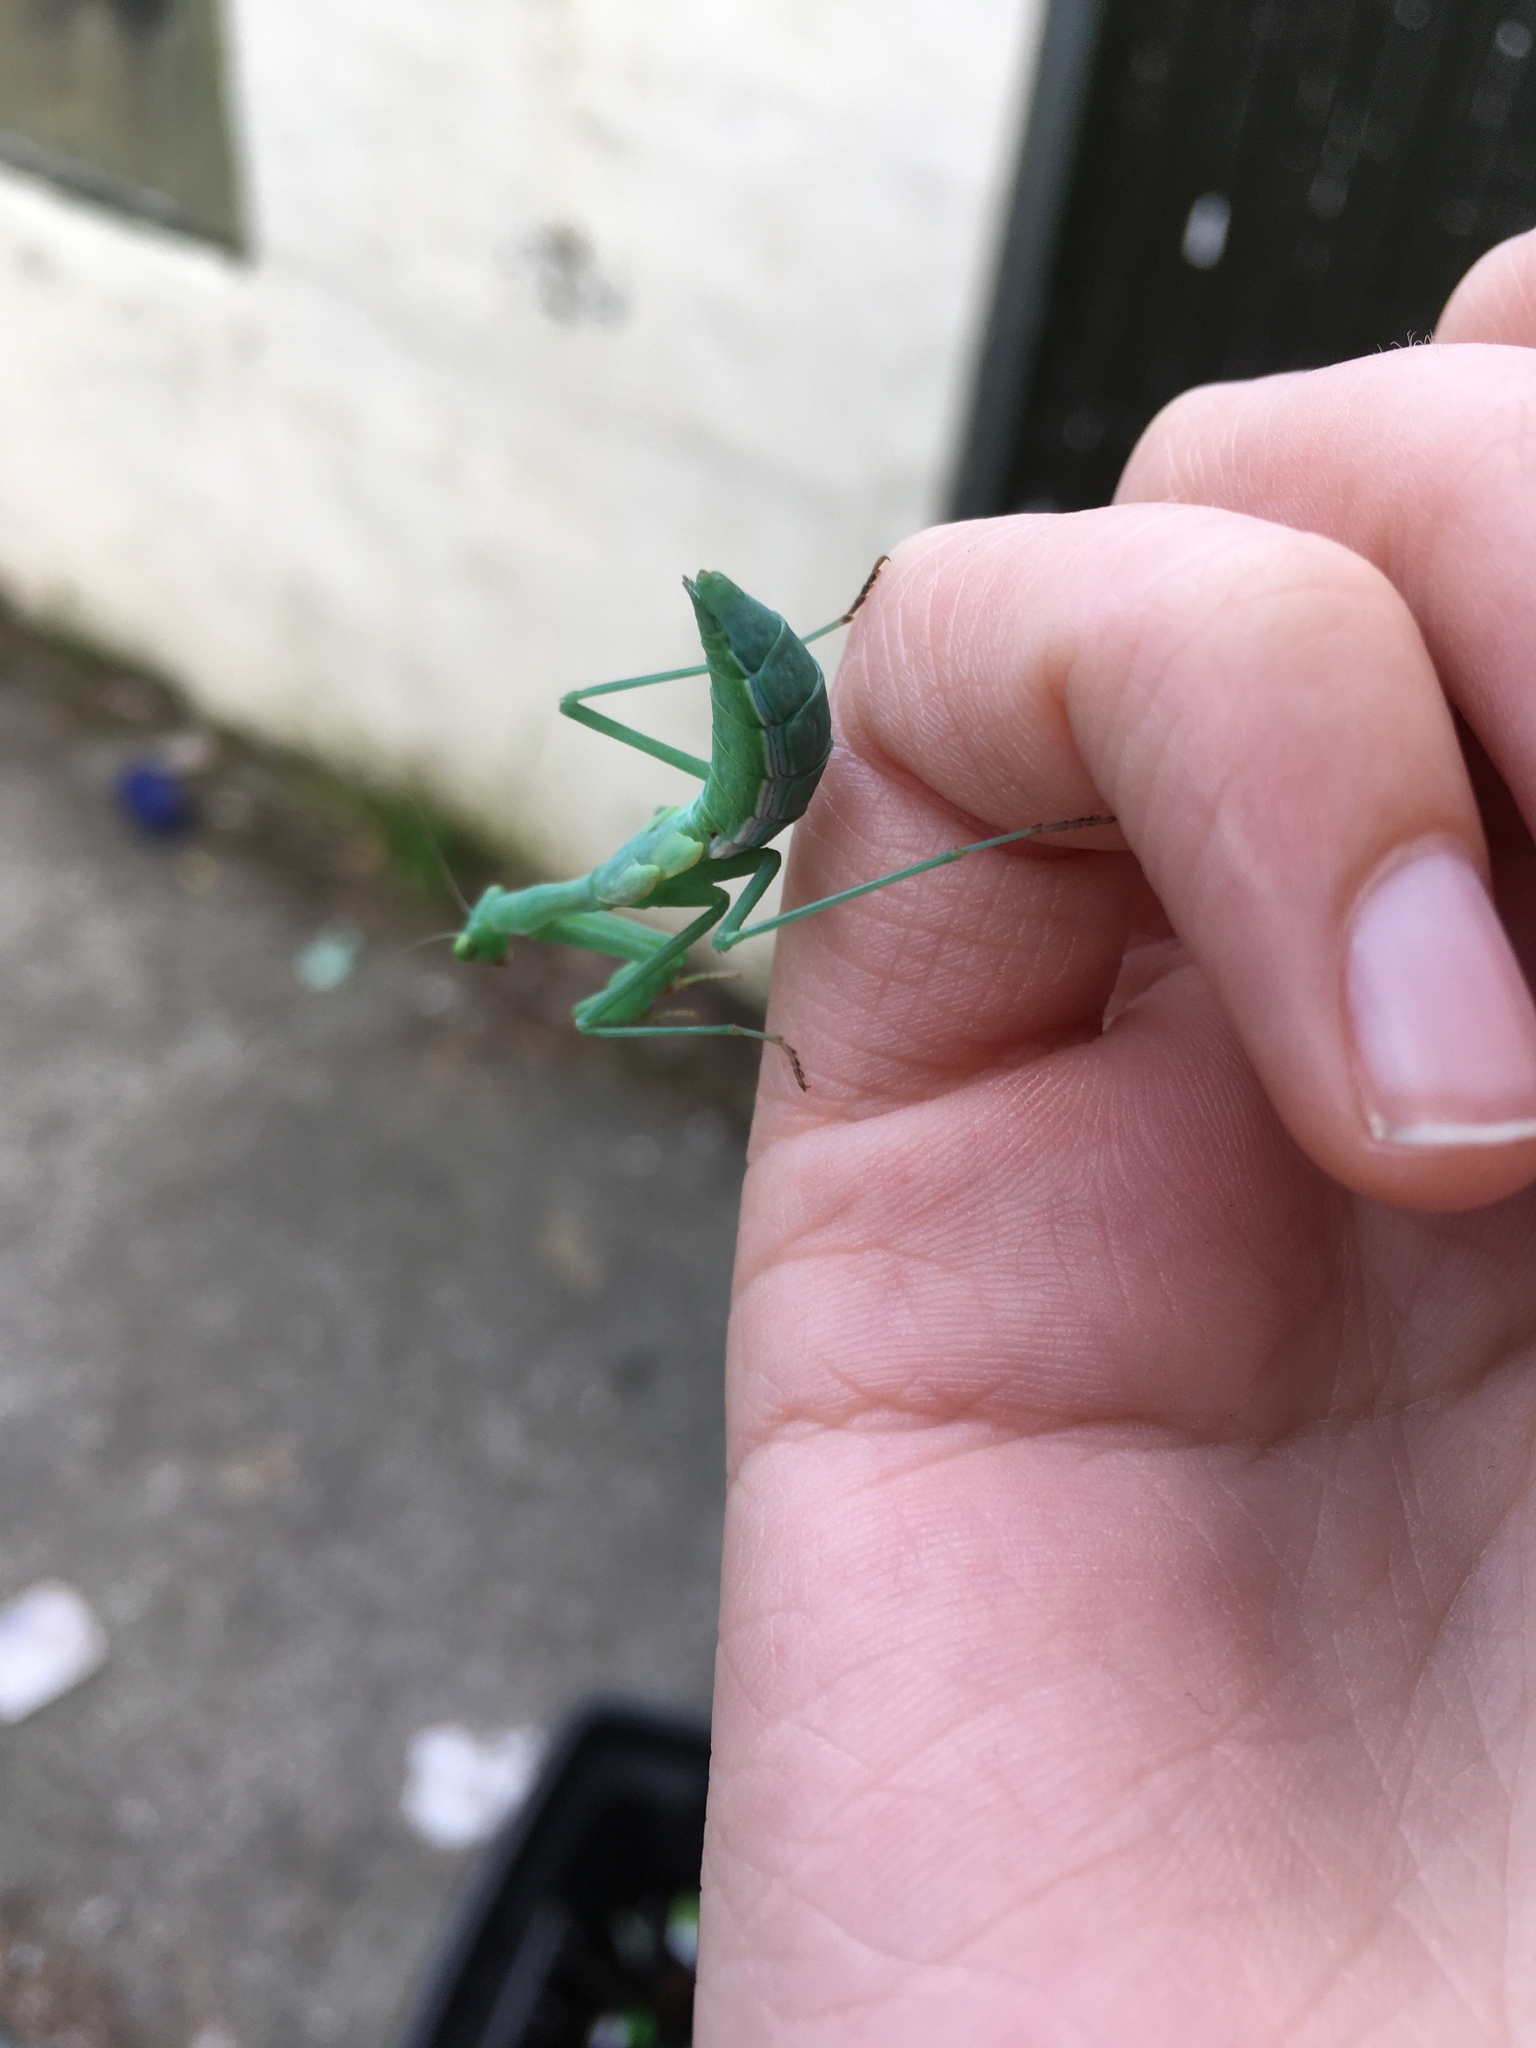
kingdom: Animalia
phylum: Arthropoda
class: Insecta
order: Mantodea
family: Miomantidae
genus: Miomantis
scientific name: Miomantis caffra
